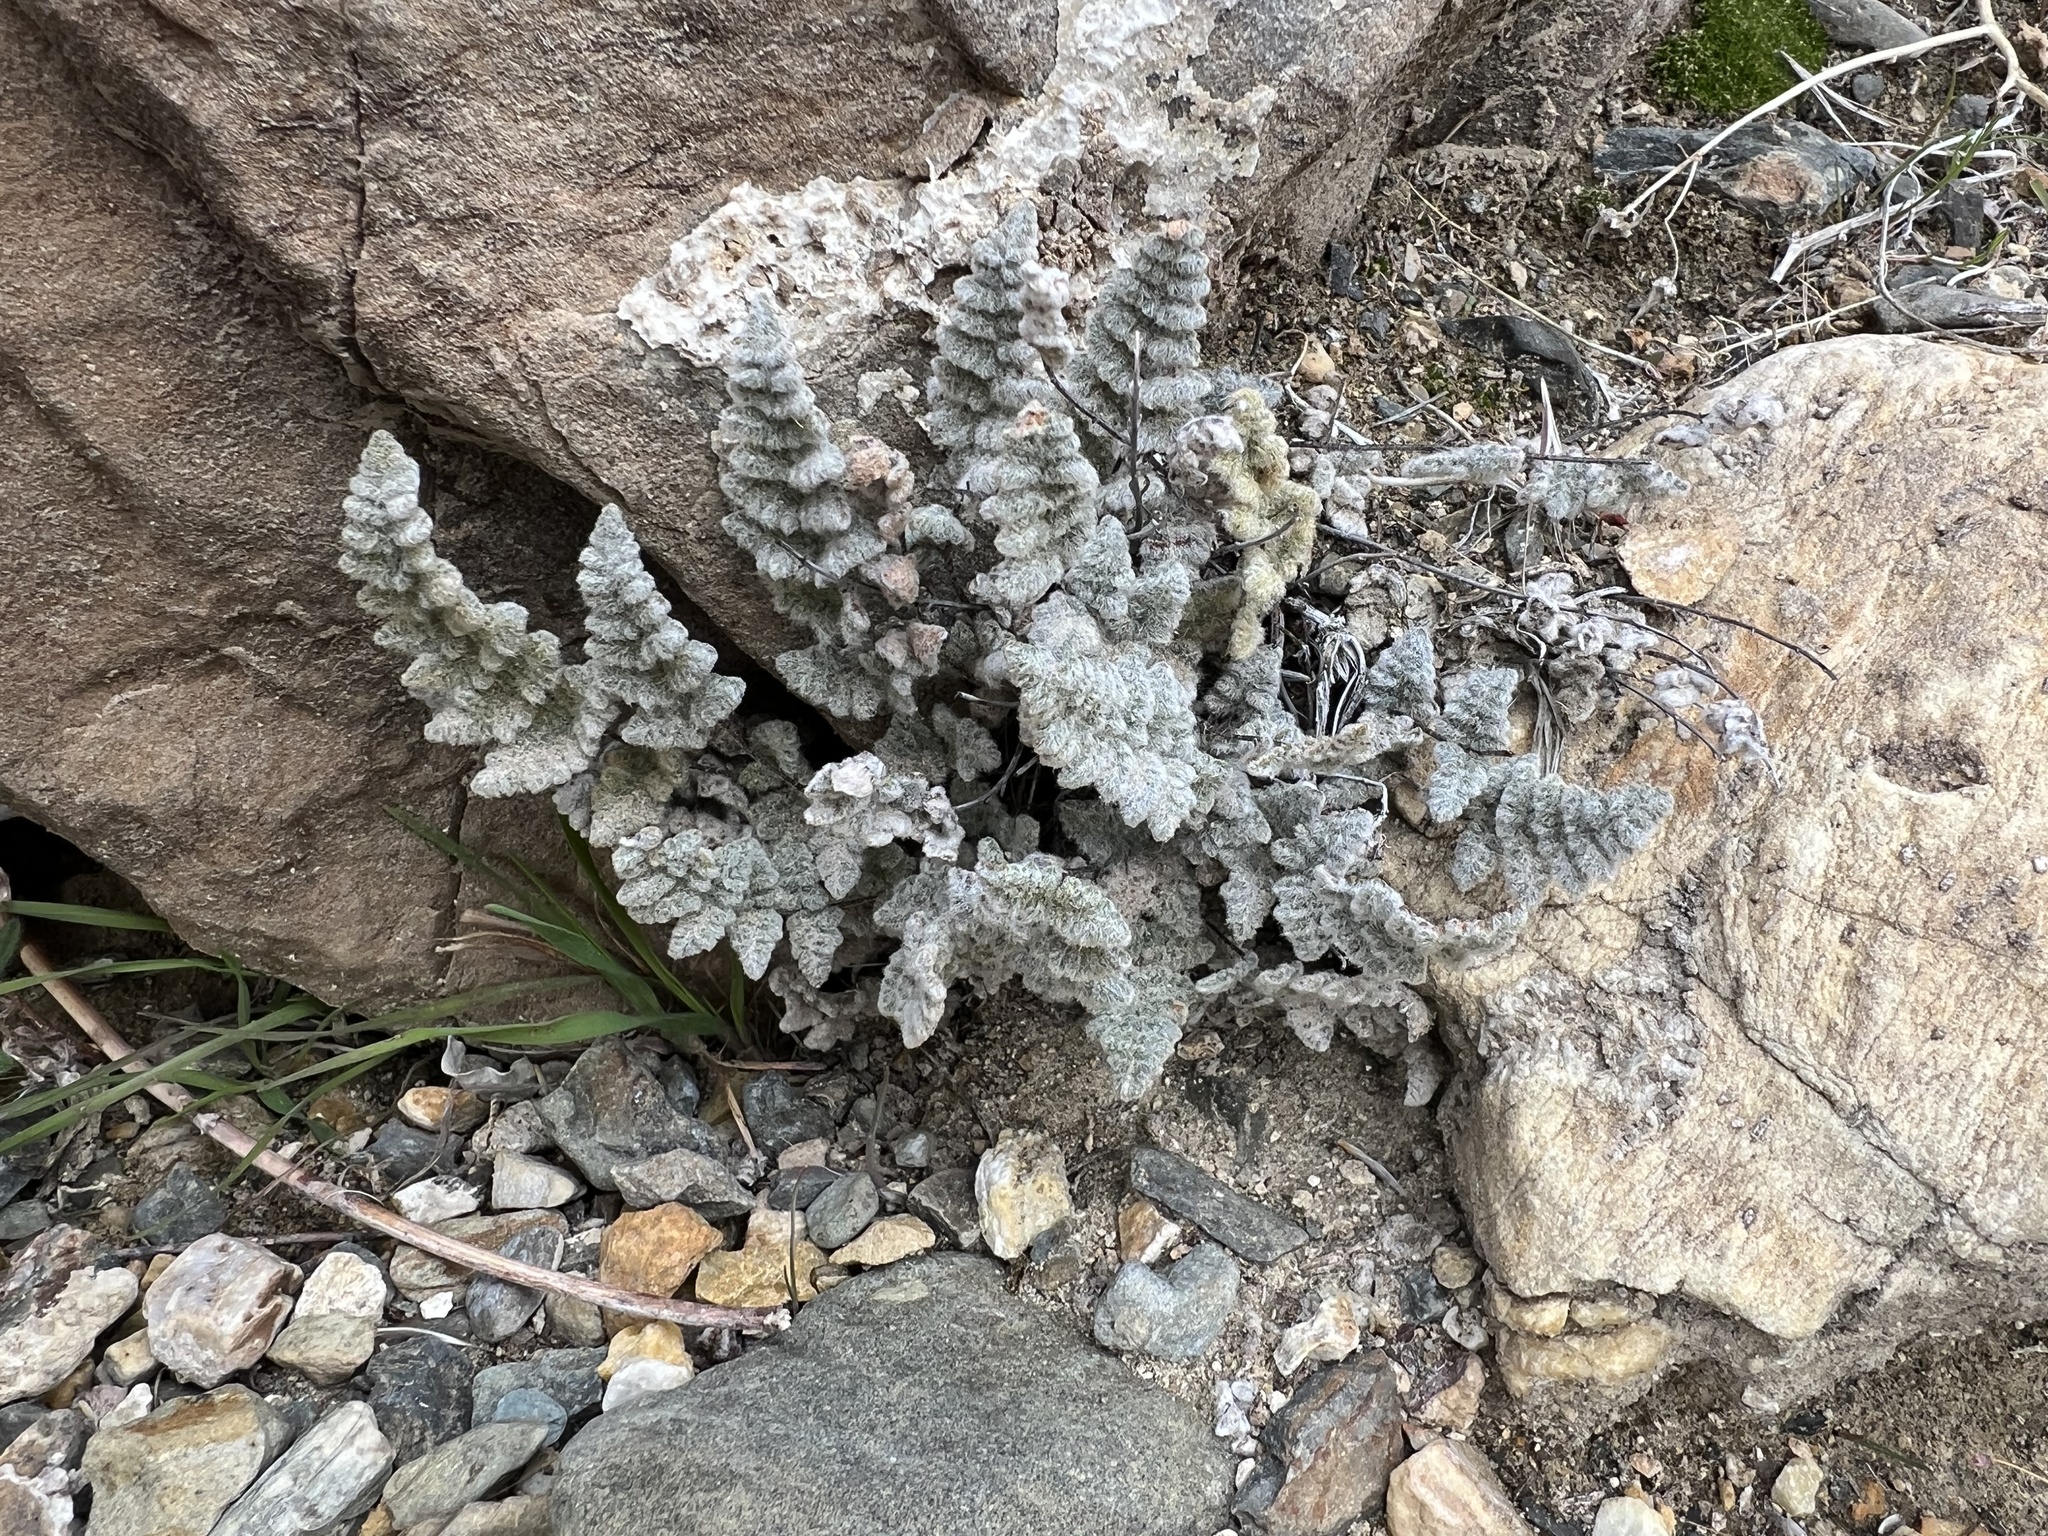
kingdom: Plantae
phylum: Tracheophyta
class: Polypodiopsida
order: Polypodiales
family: Pteridaceae
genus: Myriopteris
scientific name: Myriopteris parryi
